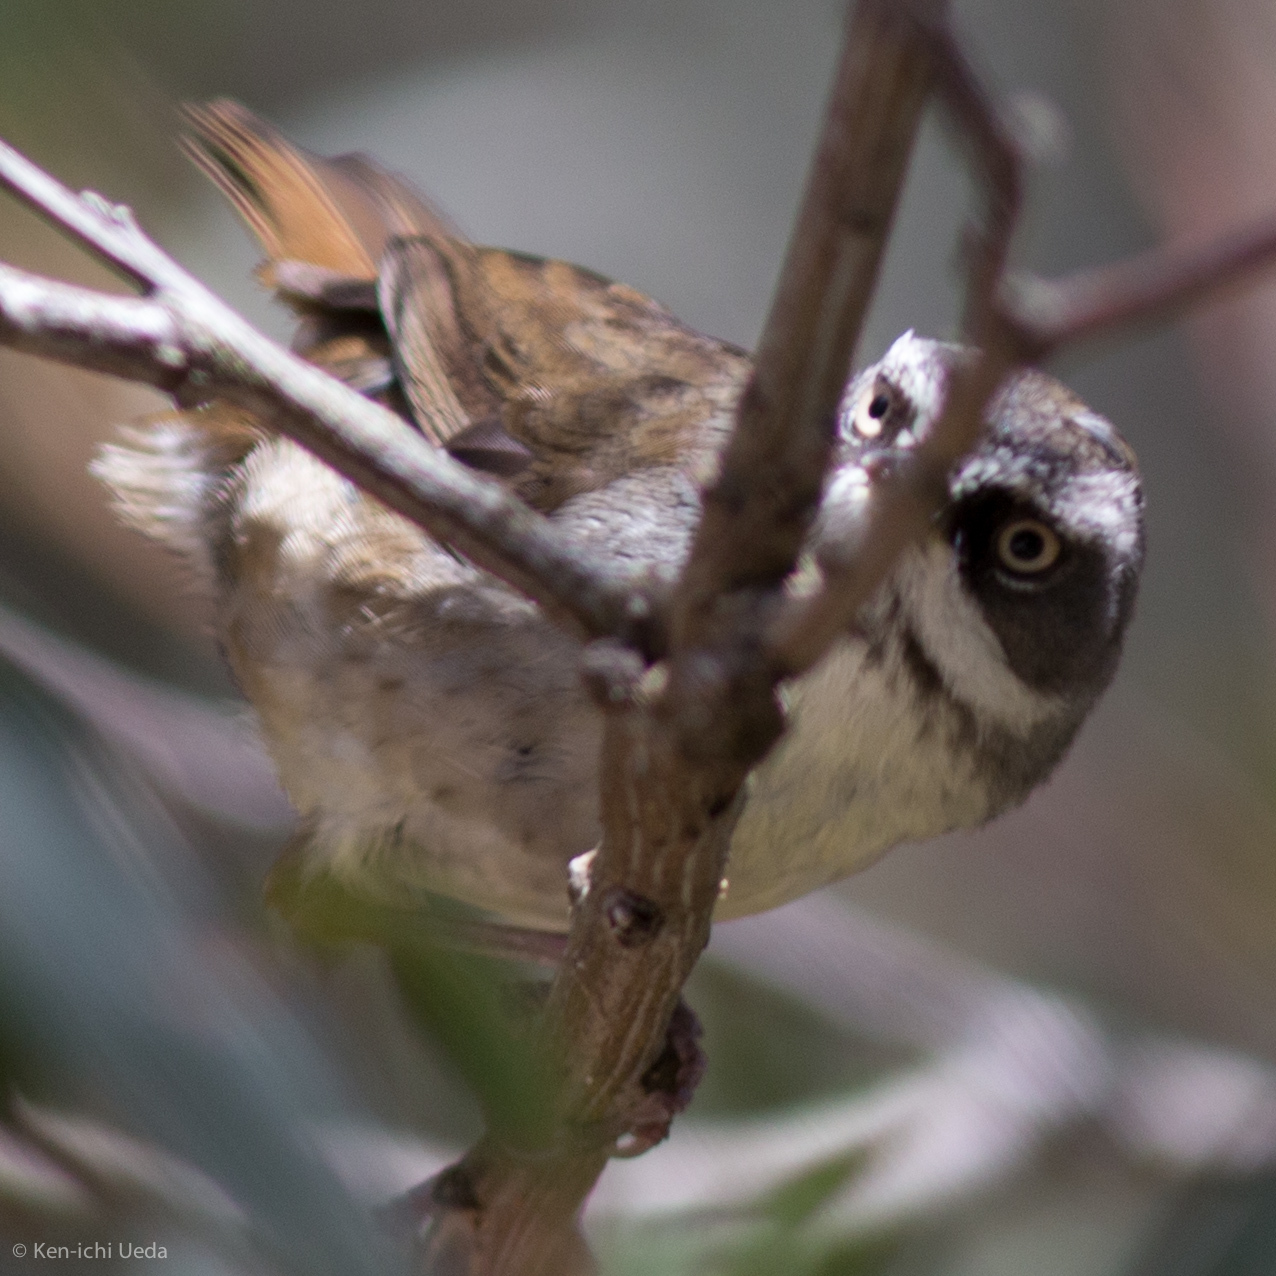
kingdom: Animalia
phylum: Chordata
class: Aves
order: Passeriformes
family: Acanthizidae
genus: Sericornis
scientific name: Sericornis frontalis
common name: White-browed scrubwren
